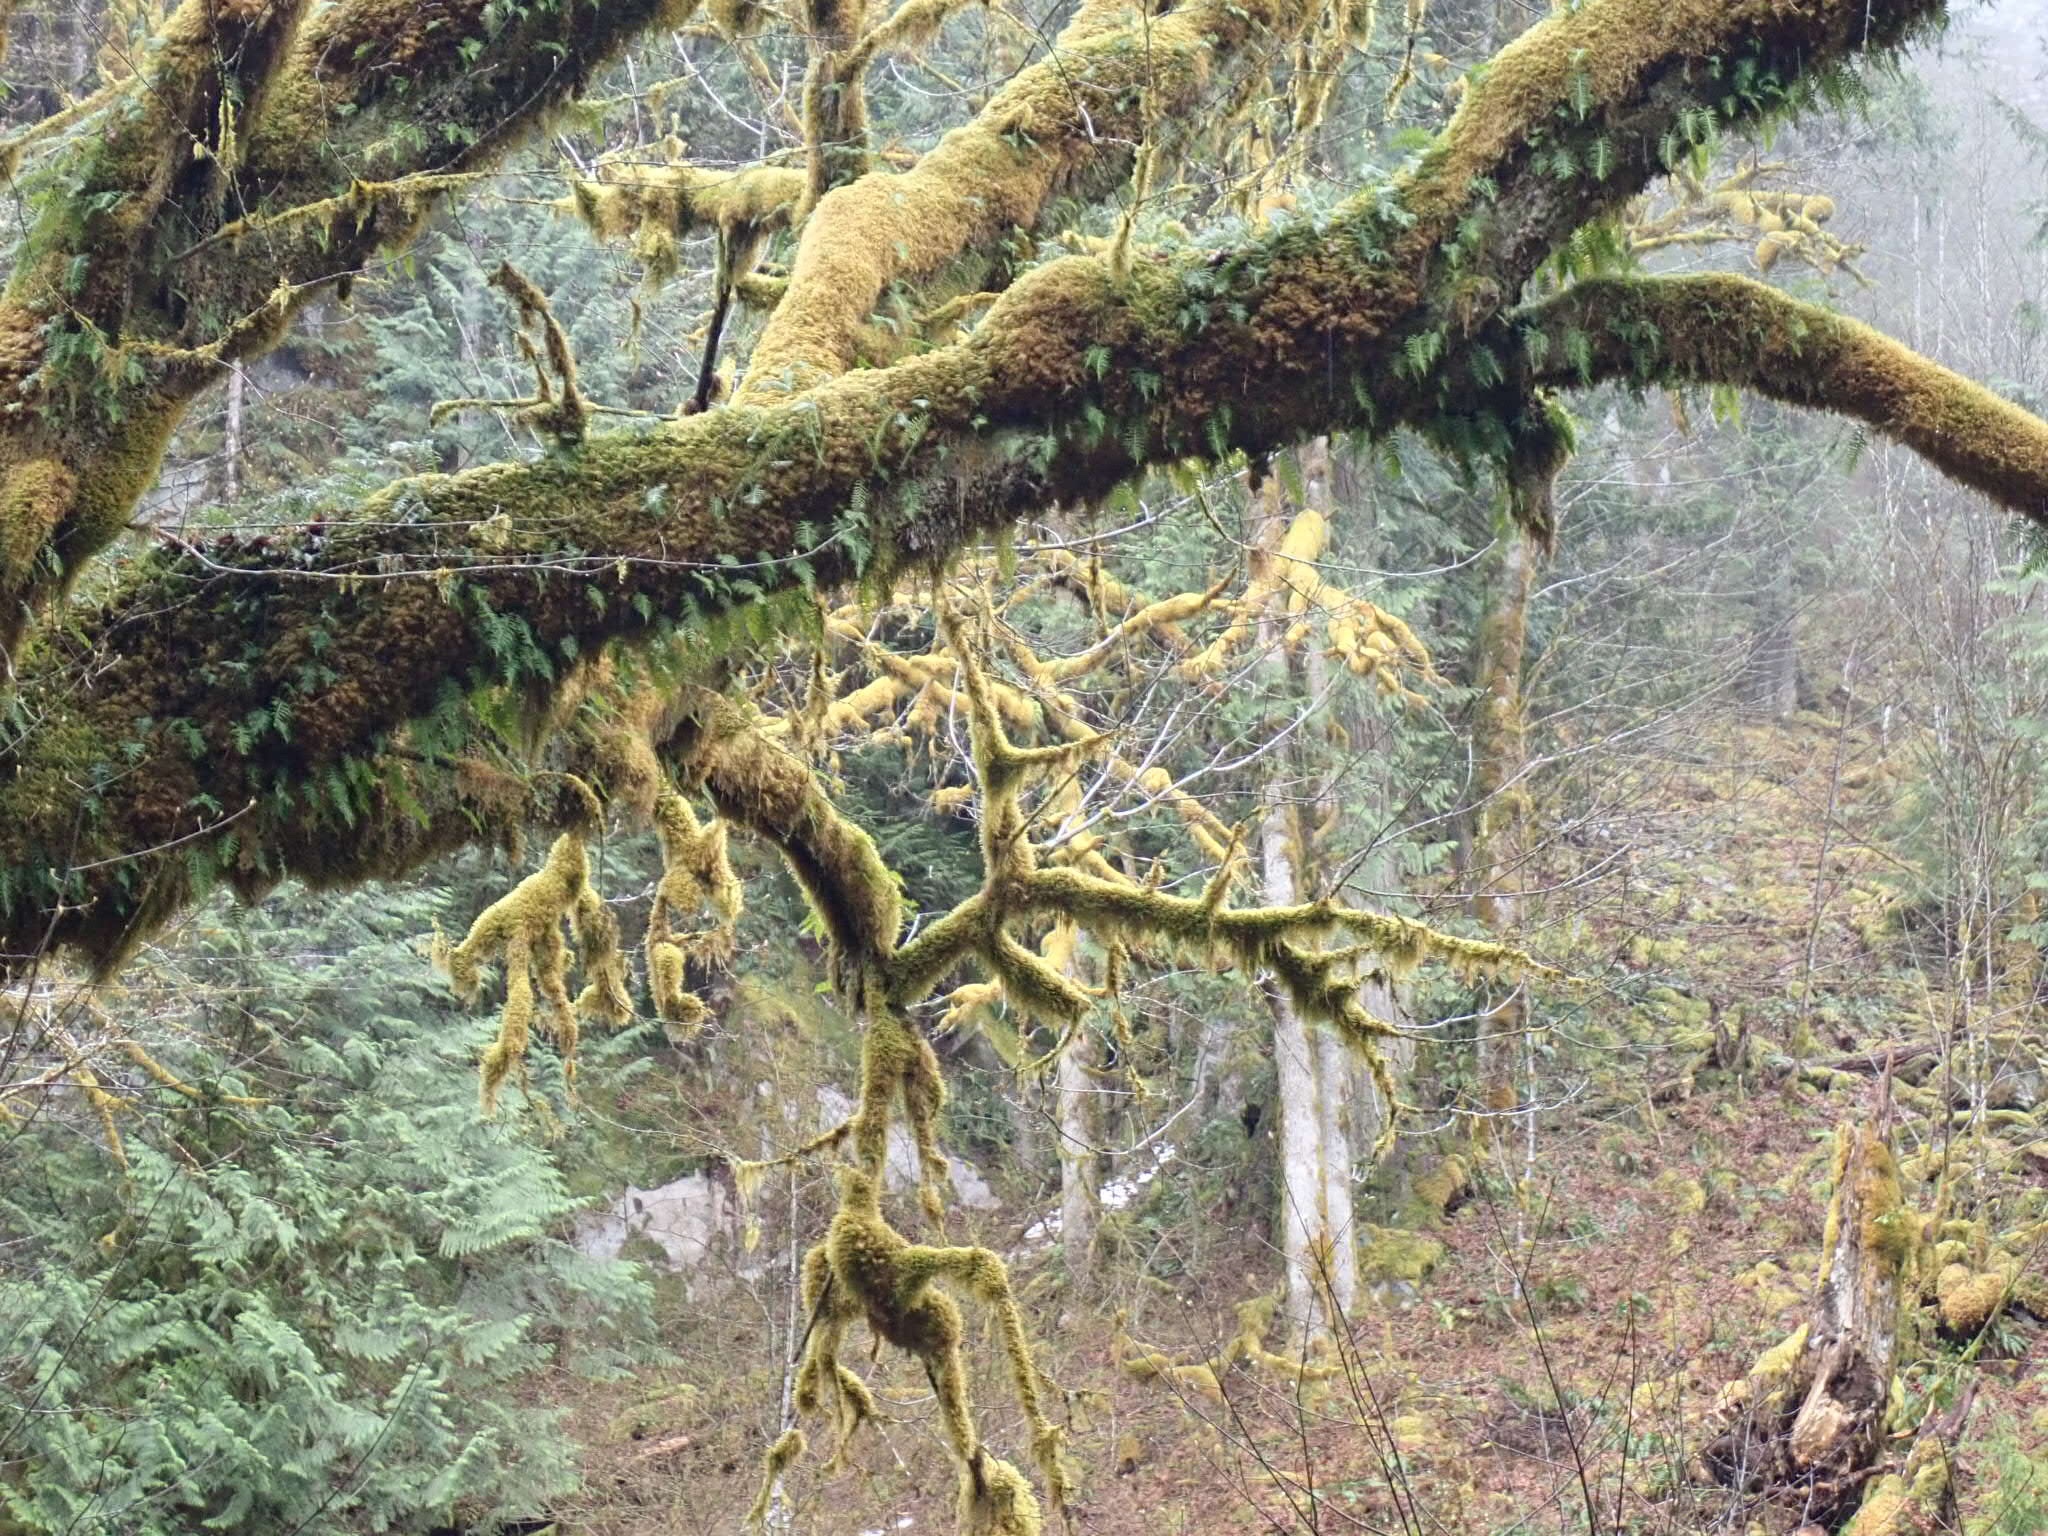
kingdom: Plantae
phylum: Bryophyta
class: Bryopsida
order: Bryales
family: Mniaceae
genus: Plagiomnium
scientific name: Plagiomnium insigne
